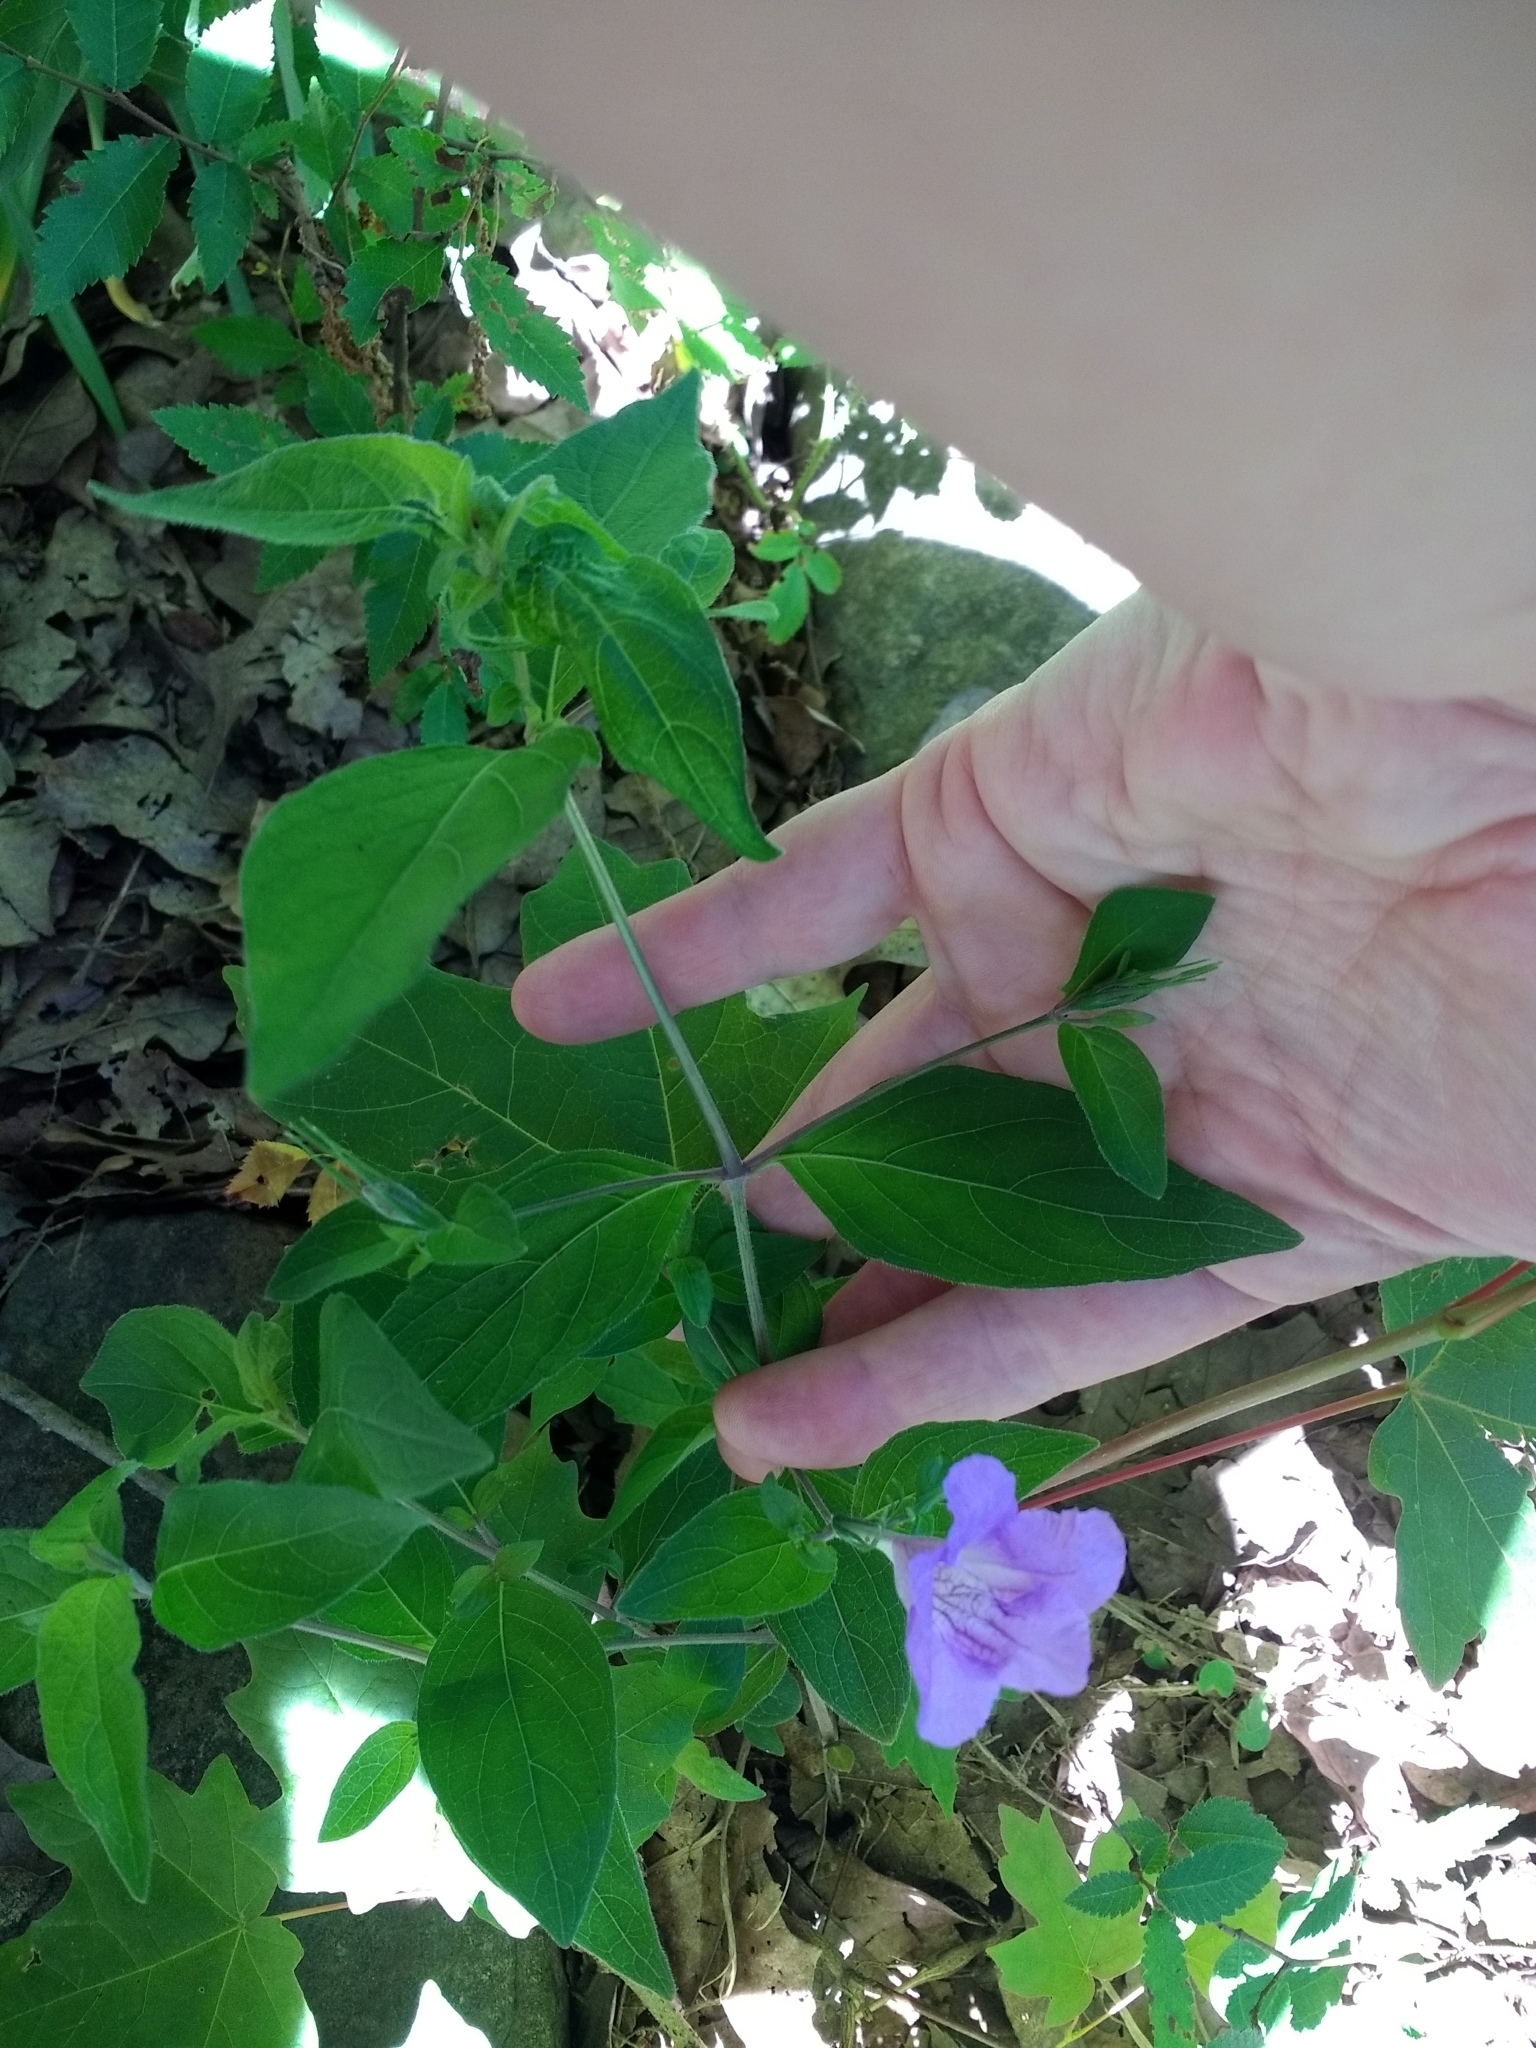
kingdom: Plantae
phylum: Tracheophyta
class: Magnoliopsida
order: Lamiales
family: Acanthaceae
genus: Ruellia
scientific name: Ruellia pedunculata
